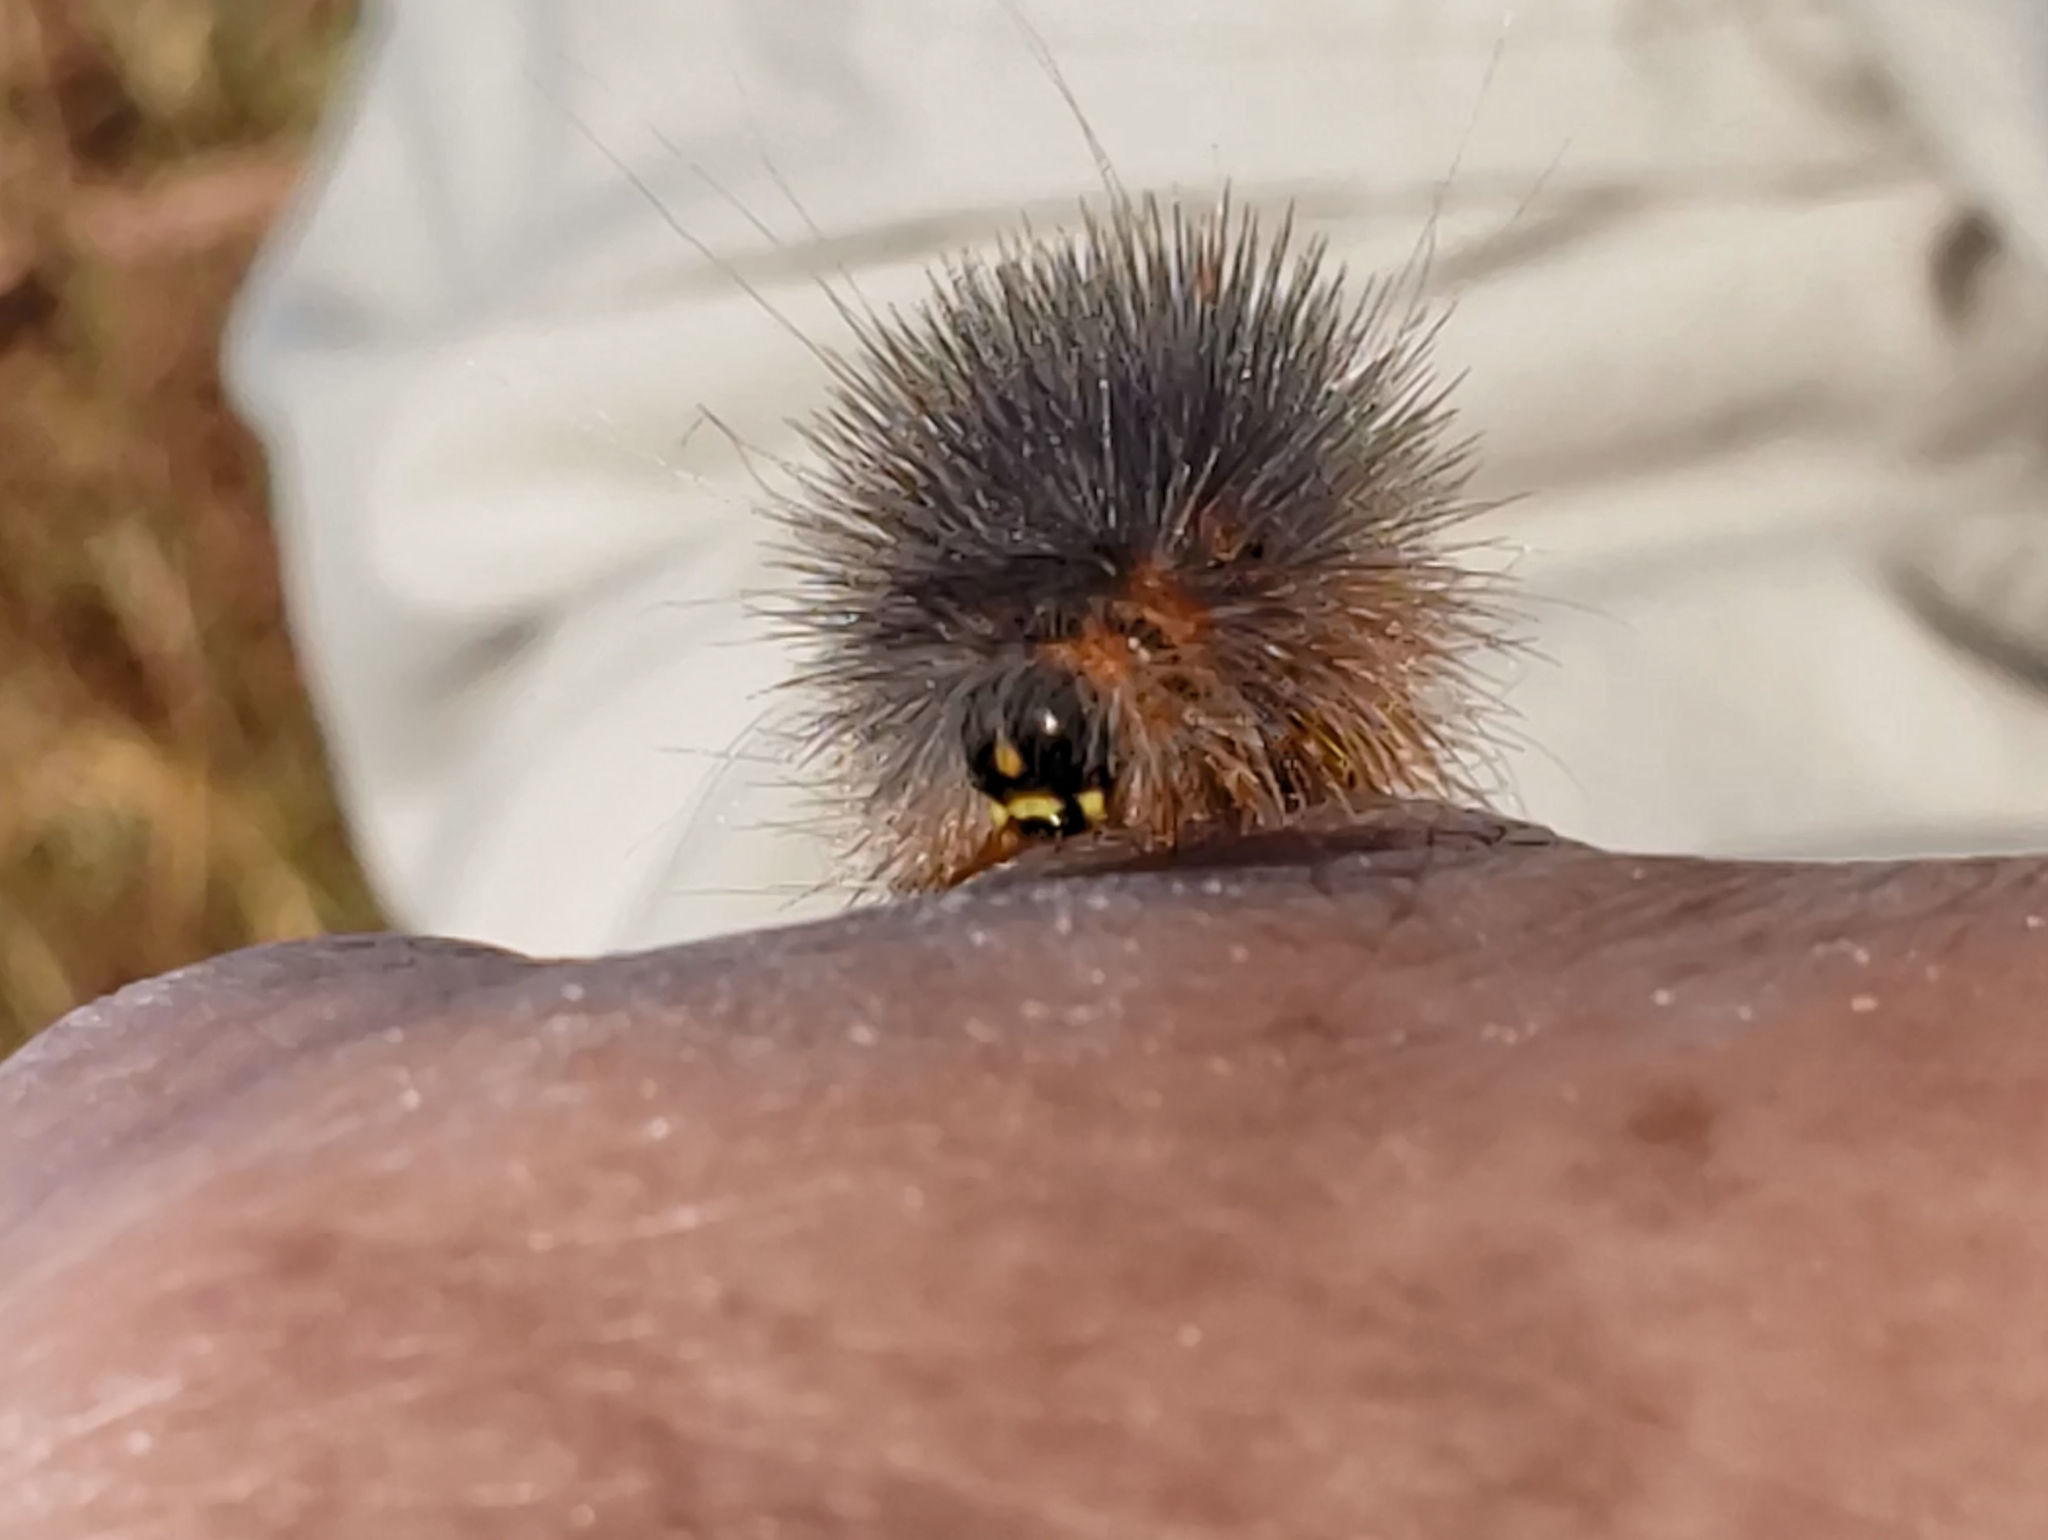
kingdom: Animalia
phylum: Arthropoda
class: Insecta
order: Lepidoptera
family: Erebidae
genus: Estigmene
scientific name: Estigmene acrea
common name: Salt marsh moth
